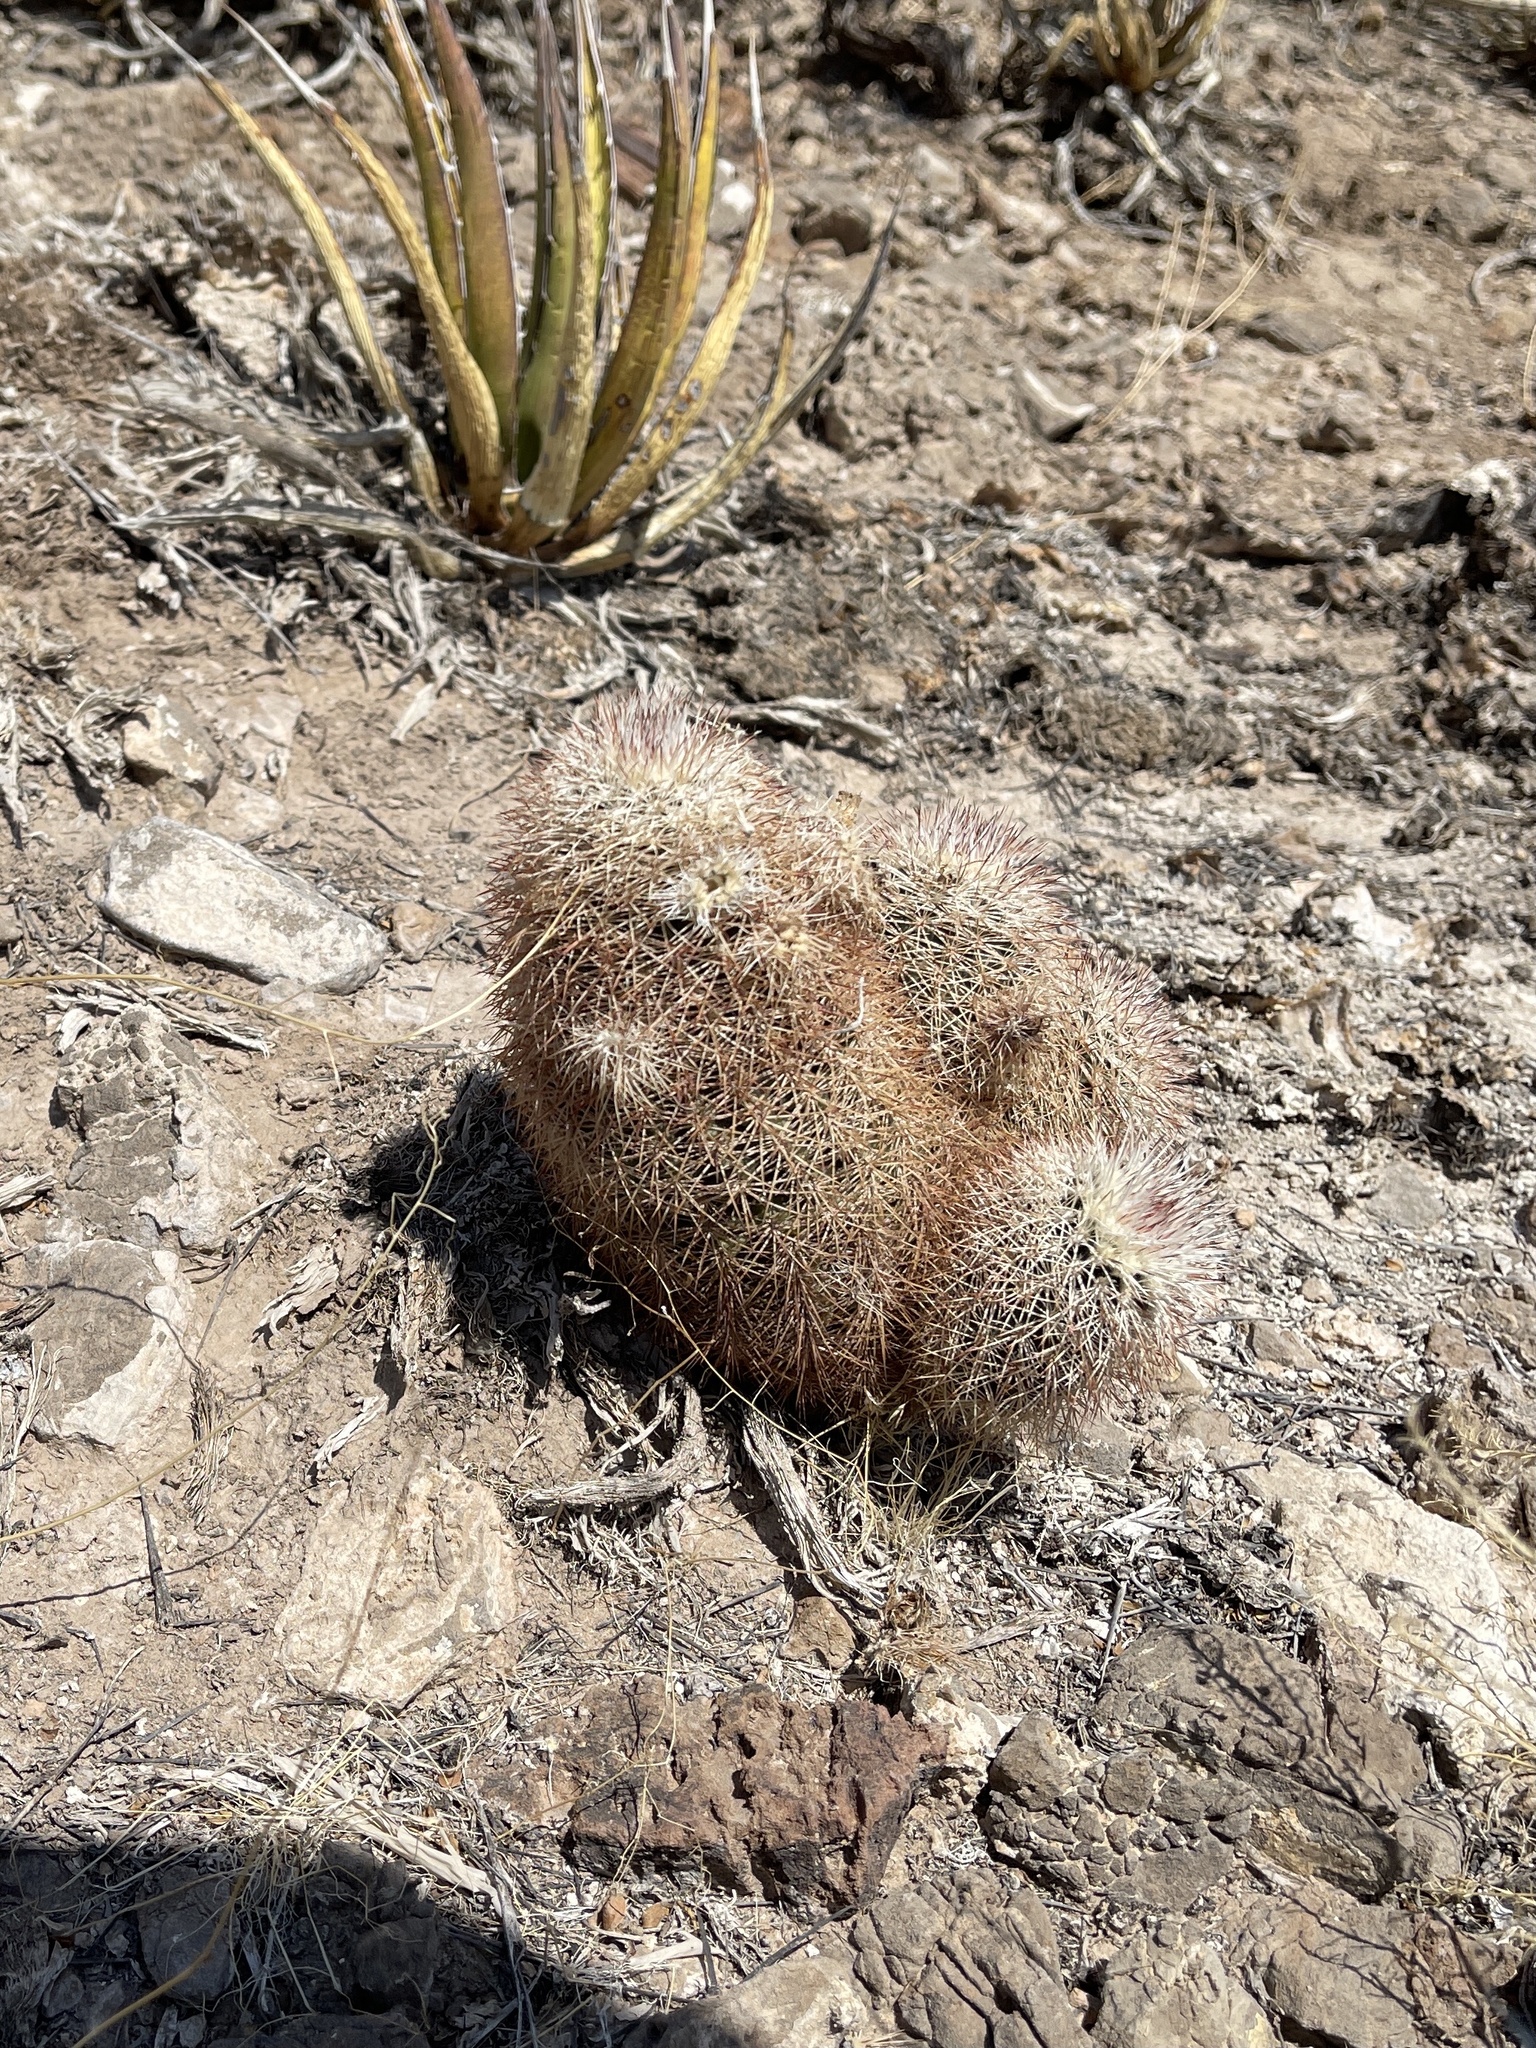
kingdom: Plantae
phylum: Tracheophyta
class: Magnoliopsida
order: Caryophyllales
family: Cactaceae
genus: Echinocereus
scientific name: Echinocereus dasyacanthus
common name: Spiny hedgehog cactus
